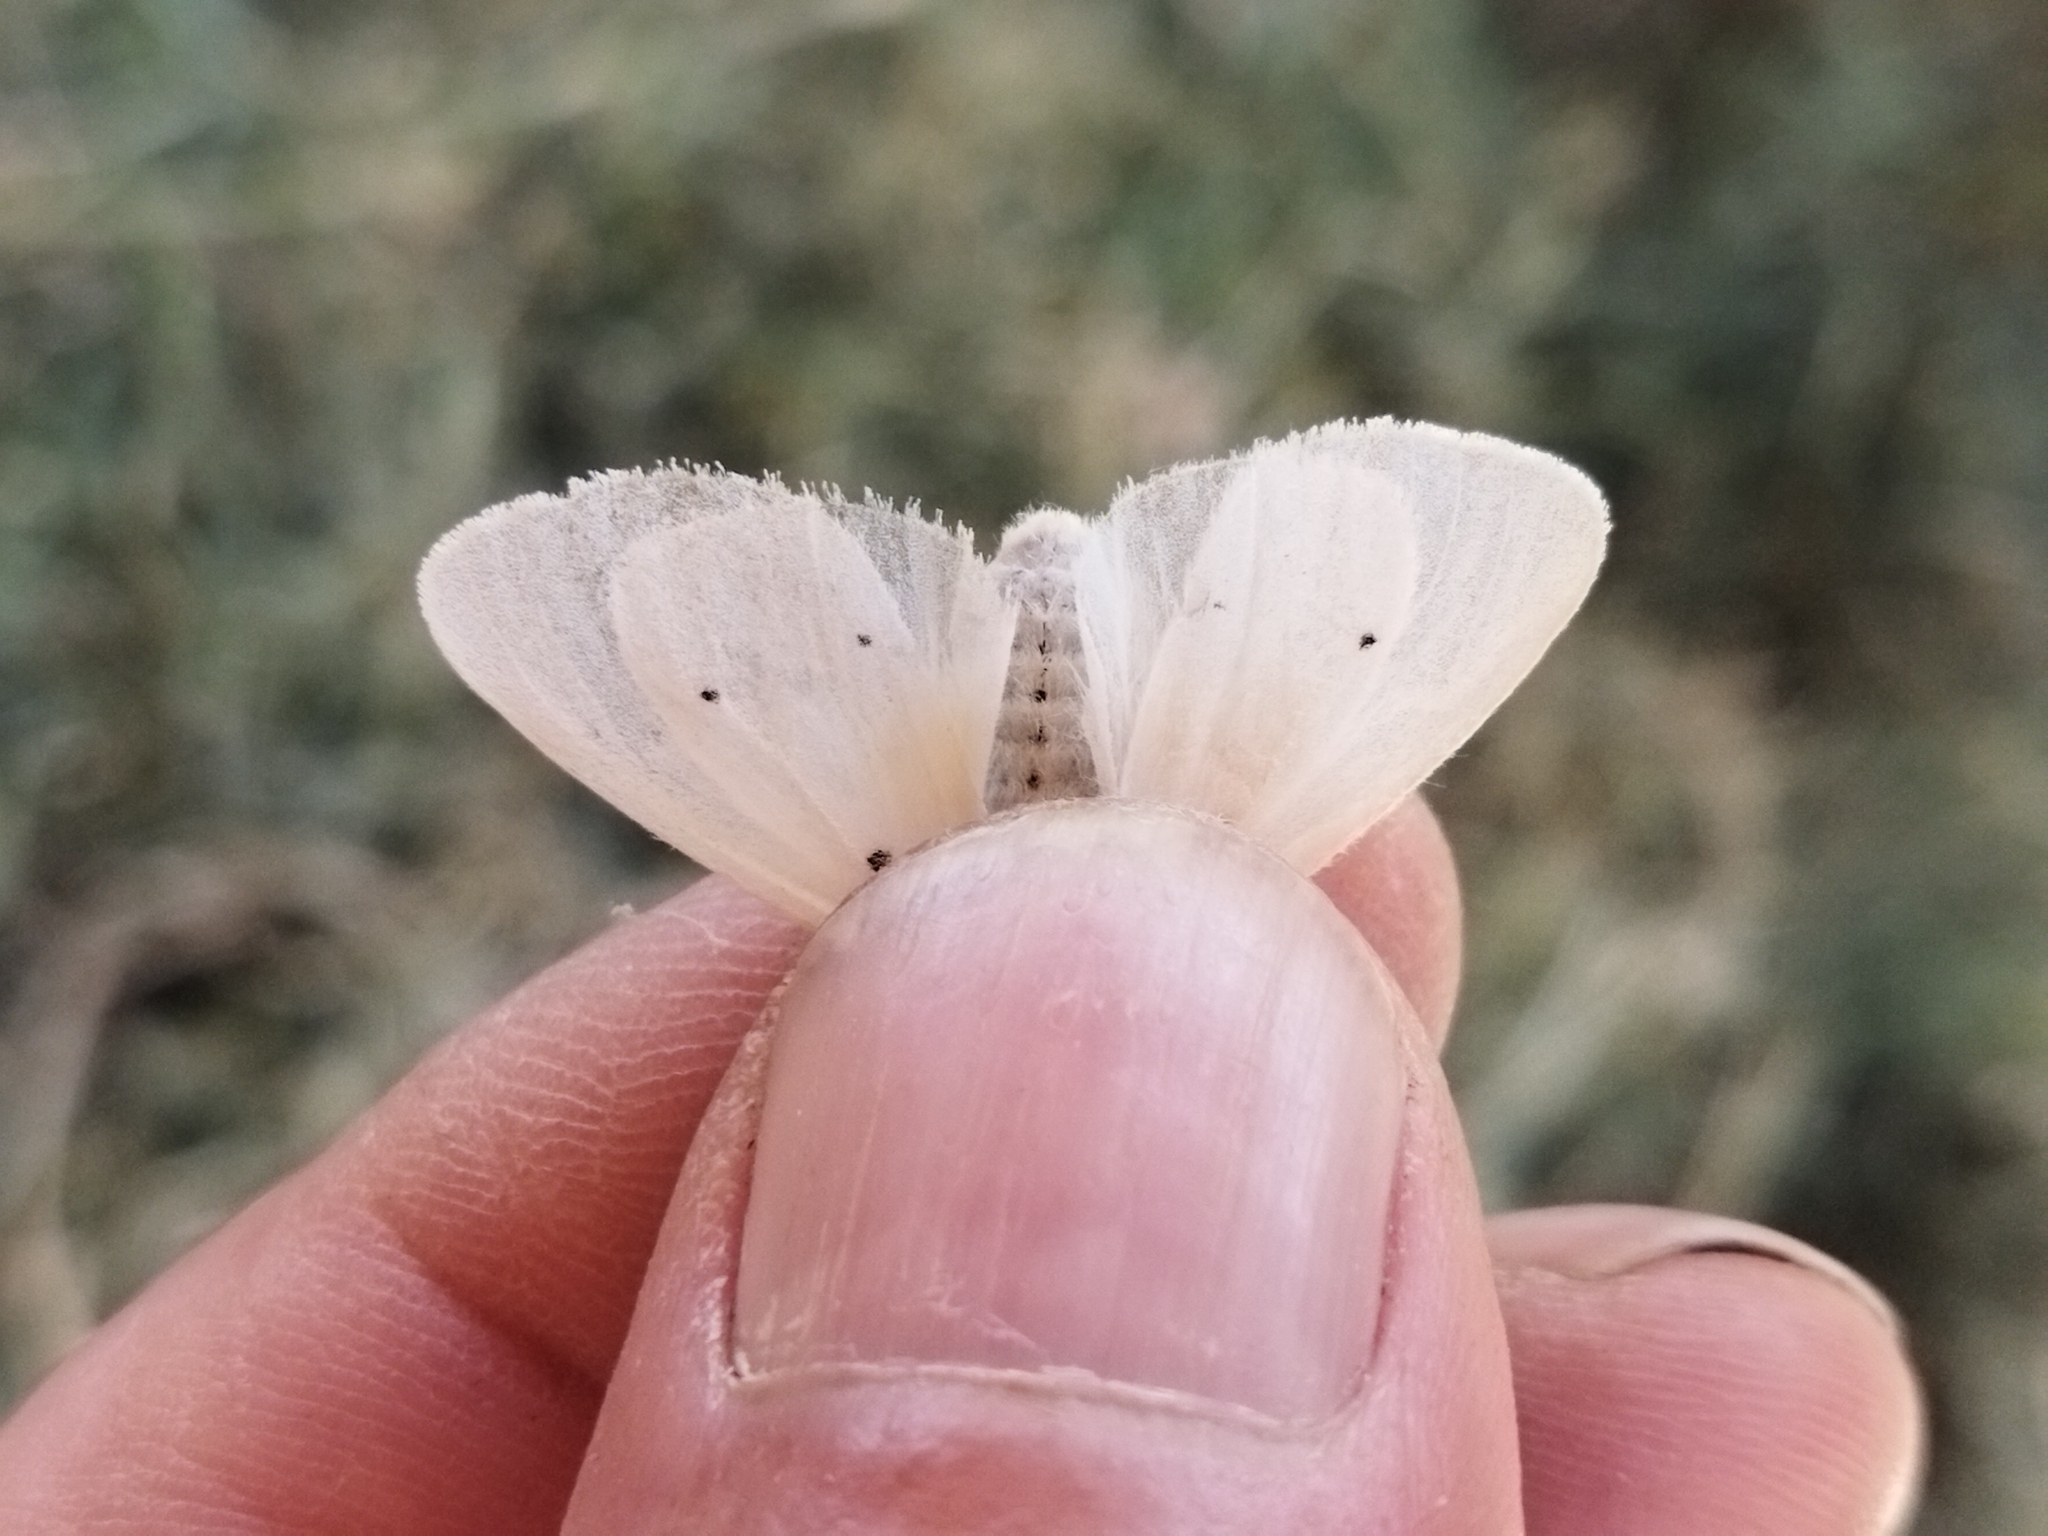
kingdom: Animalia
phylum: Arthropoda
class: Insecta
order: Lepidoptera
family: Erebidae
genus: Diaphora
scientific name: Diaphora mendica
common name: Muslin moth
